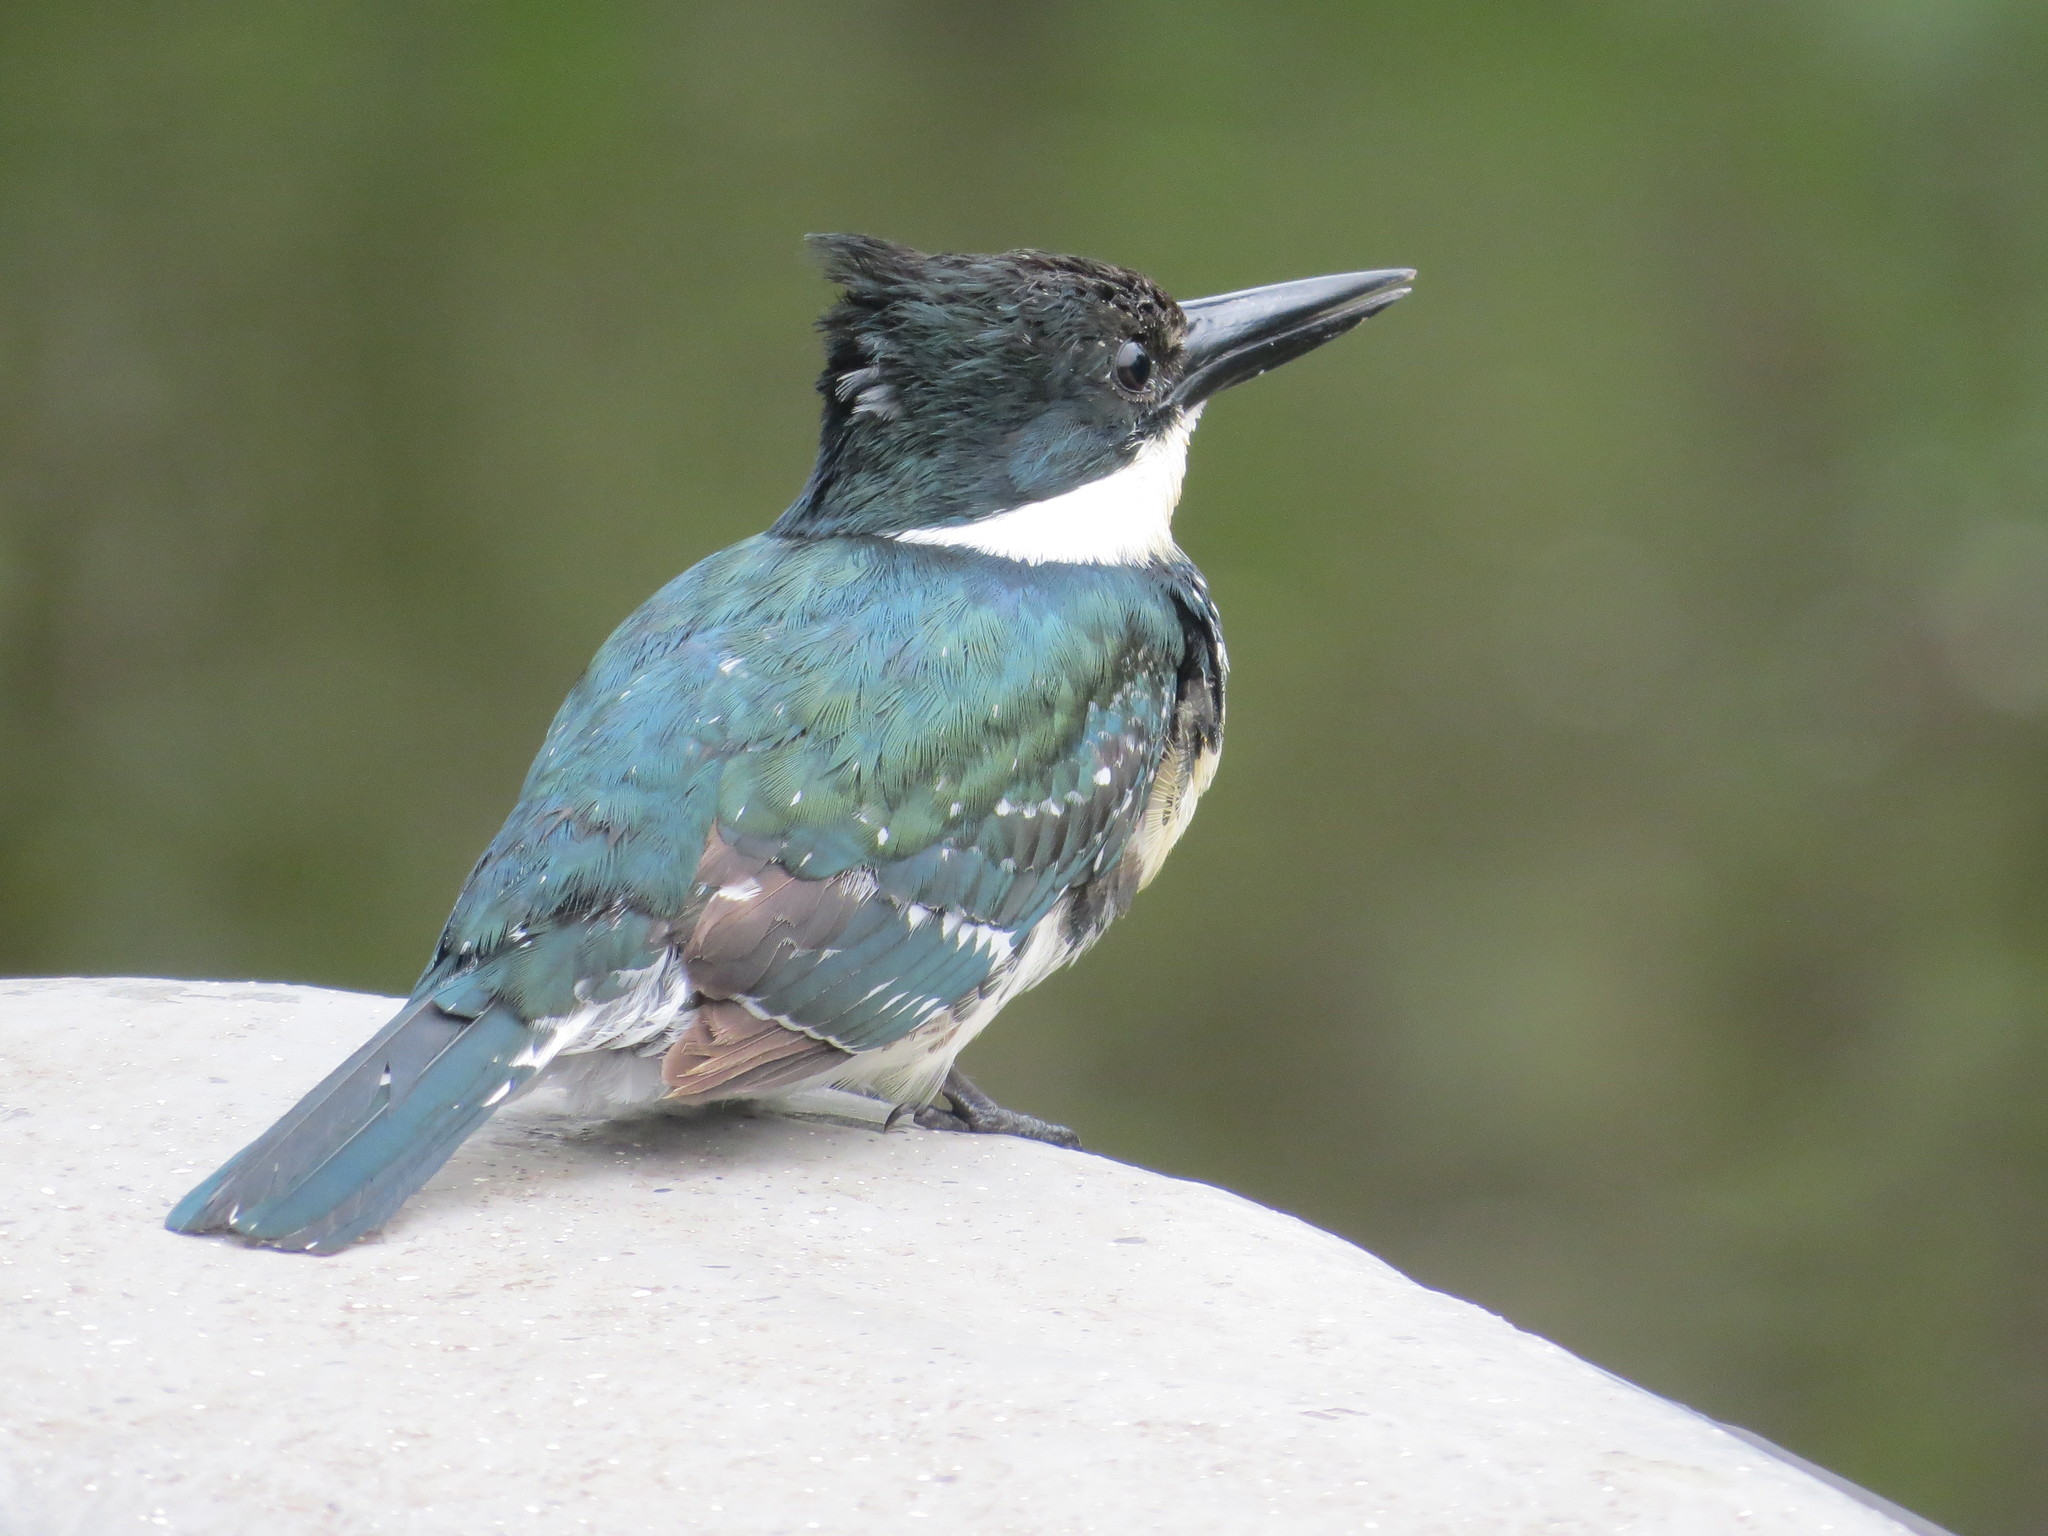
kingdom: Animalia
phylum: Chordata
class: Aves
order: Coraciiformes
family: Alcedinidae
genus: Chloroceryle
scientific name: Chloroceryle americana
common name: Green kingfisher
